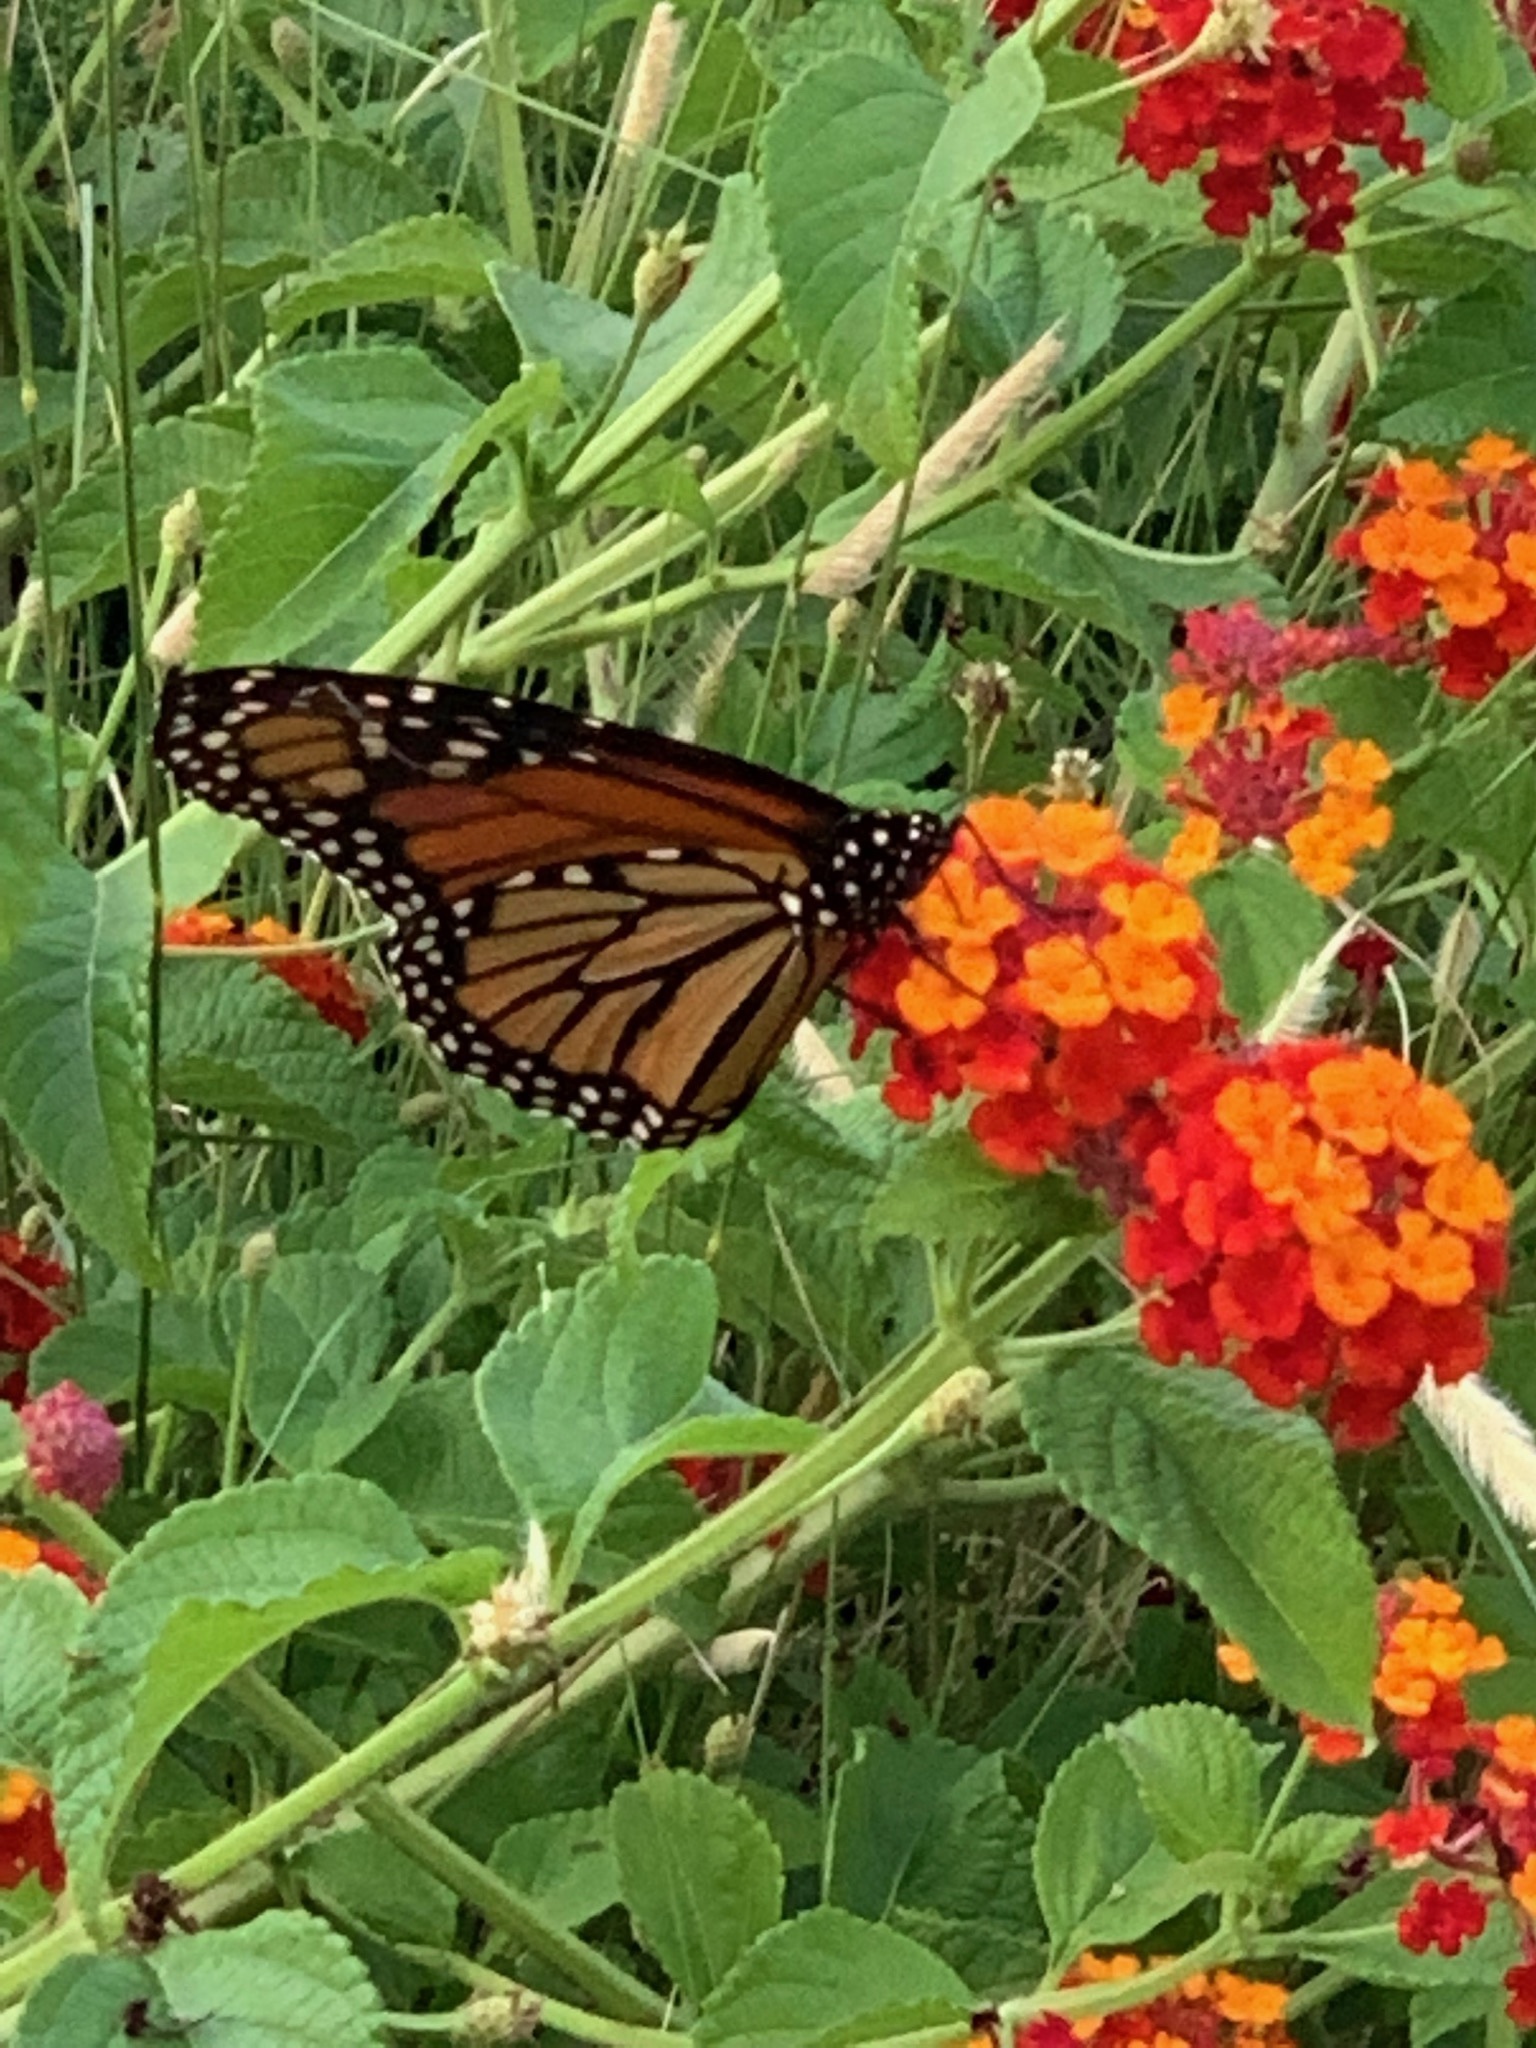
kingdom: Animalia
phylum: Arthropoda
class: Insecta
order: Lepidoptera
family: Nymphalidae
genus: Danaus
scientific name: Danaus plexippus
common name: Monarch
